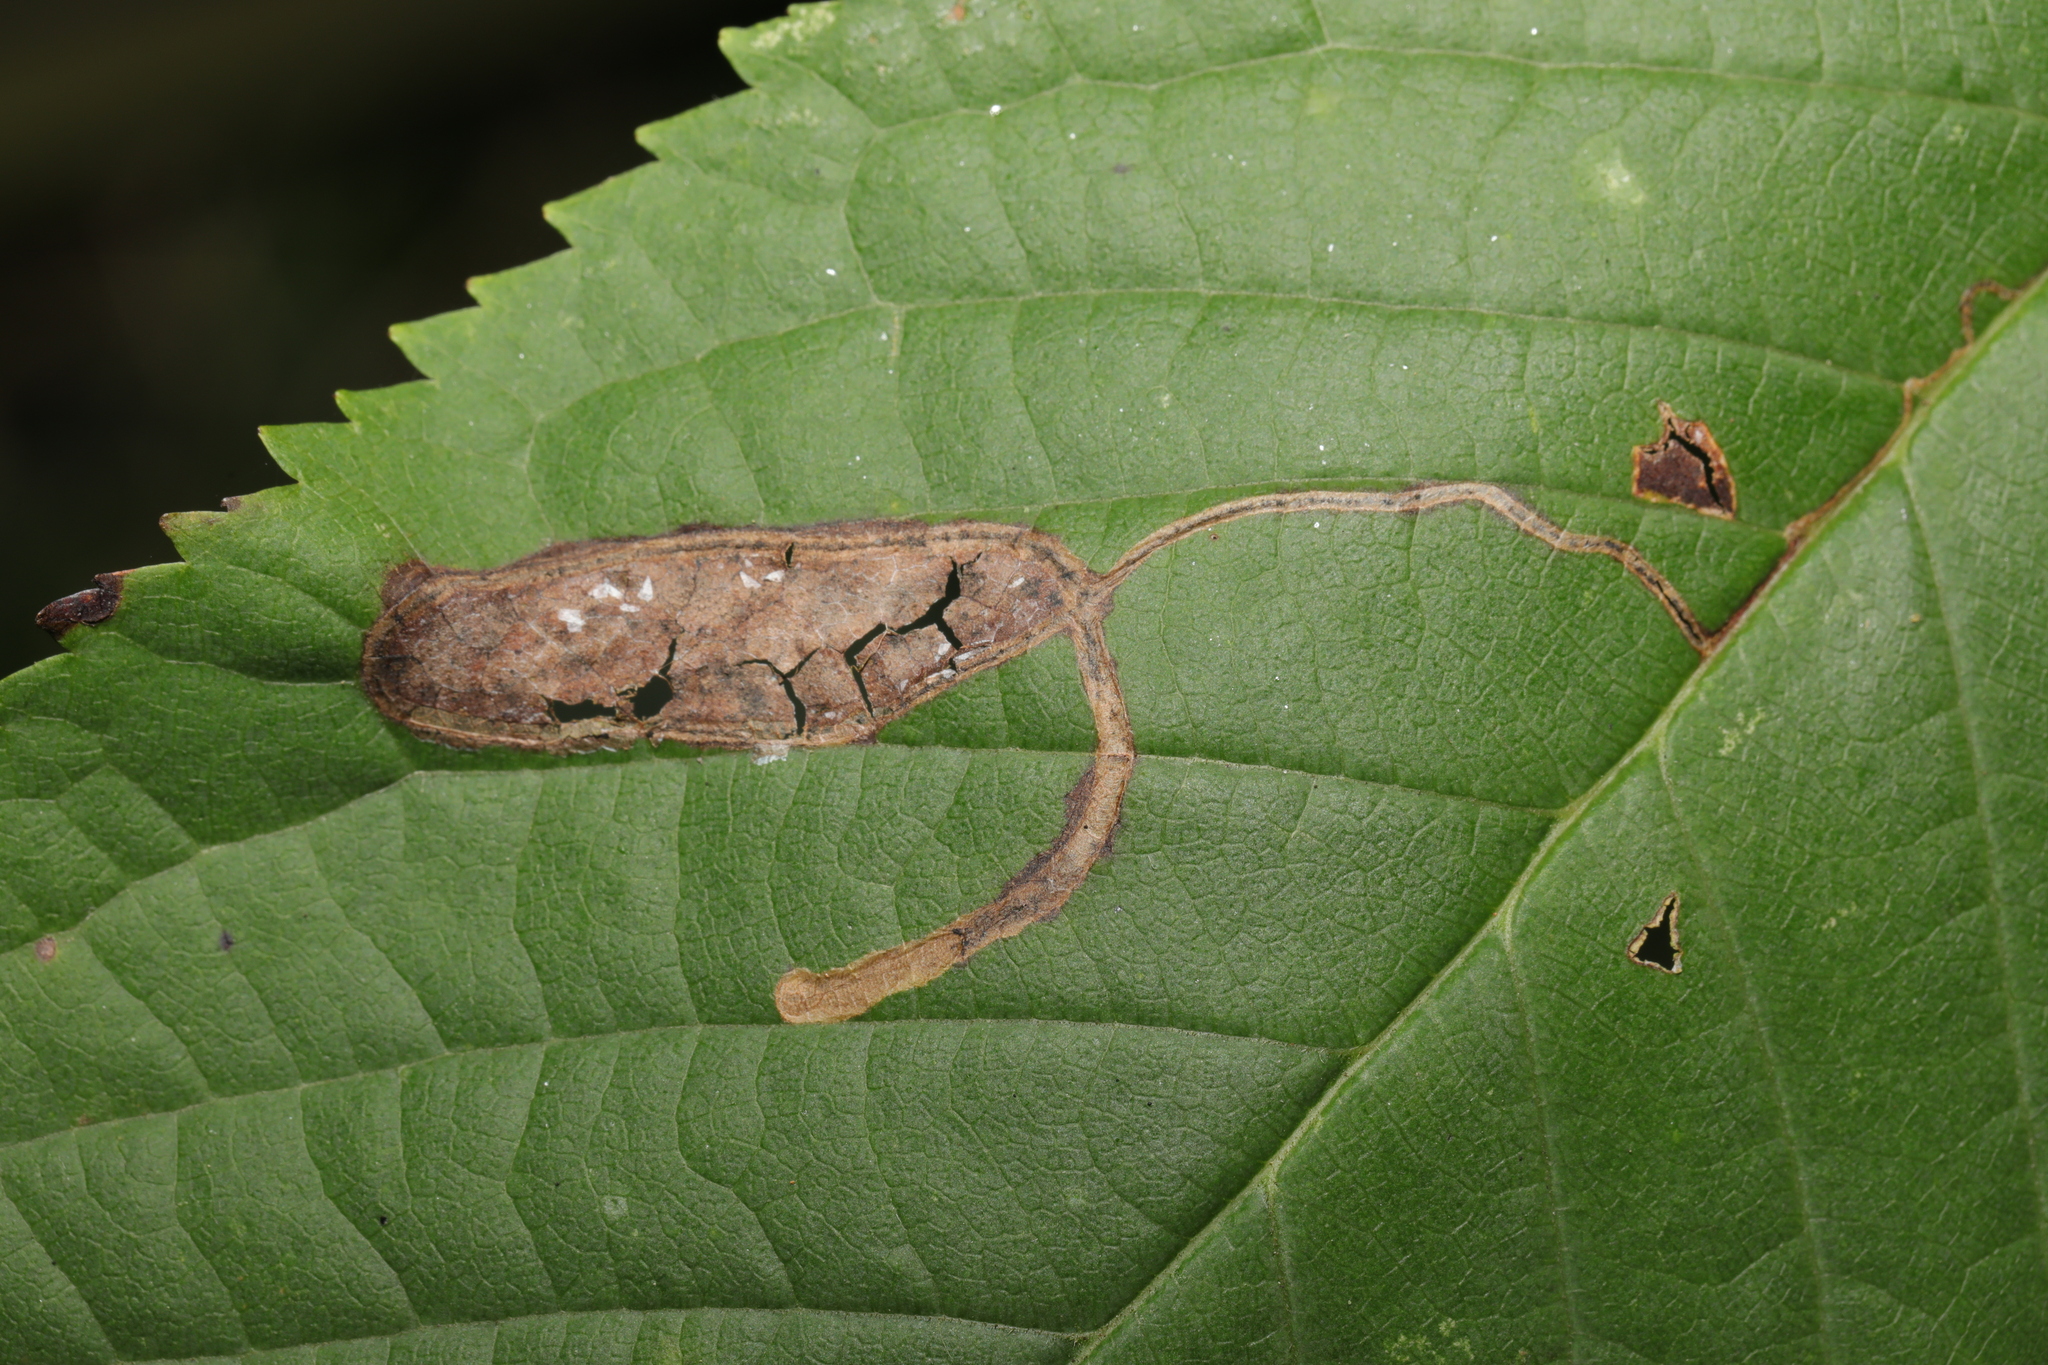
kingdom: Animalia
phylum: Arthropoda
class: Insecta
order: Lepidoptera
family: Lyonetiidae
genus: Lyonetia
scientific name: Lyonetia clerkella
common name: Apple leaf miner
